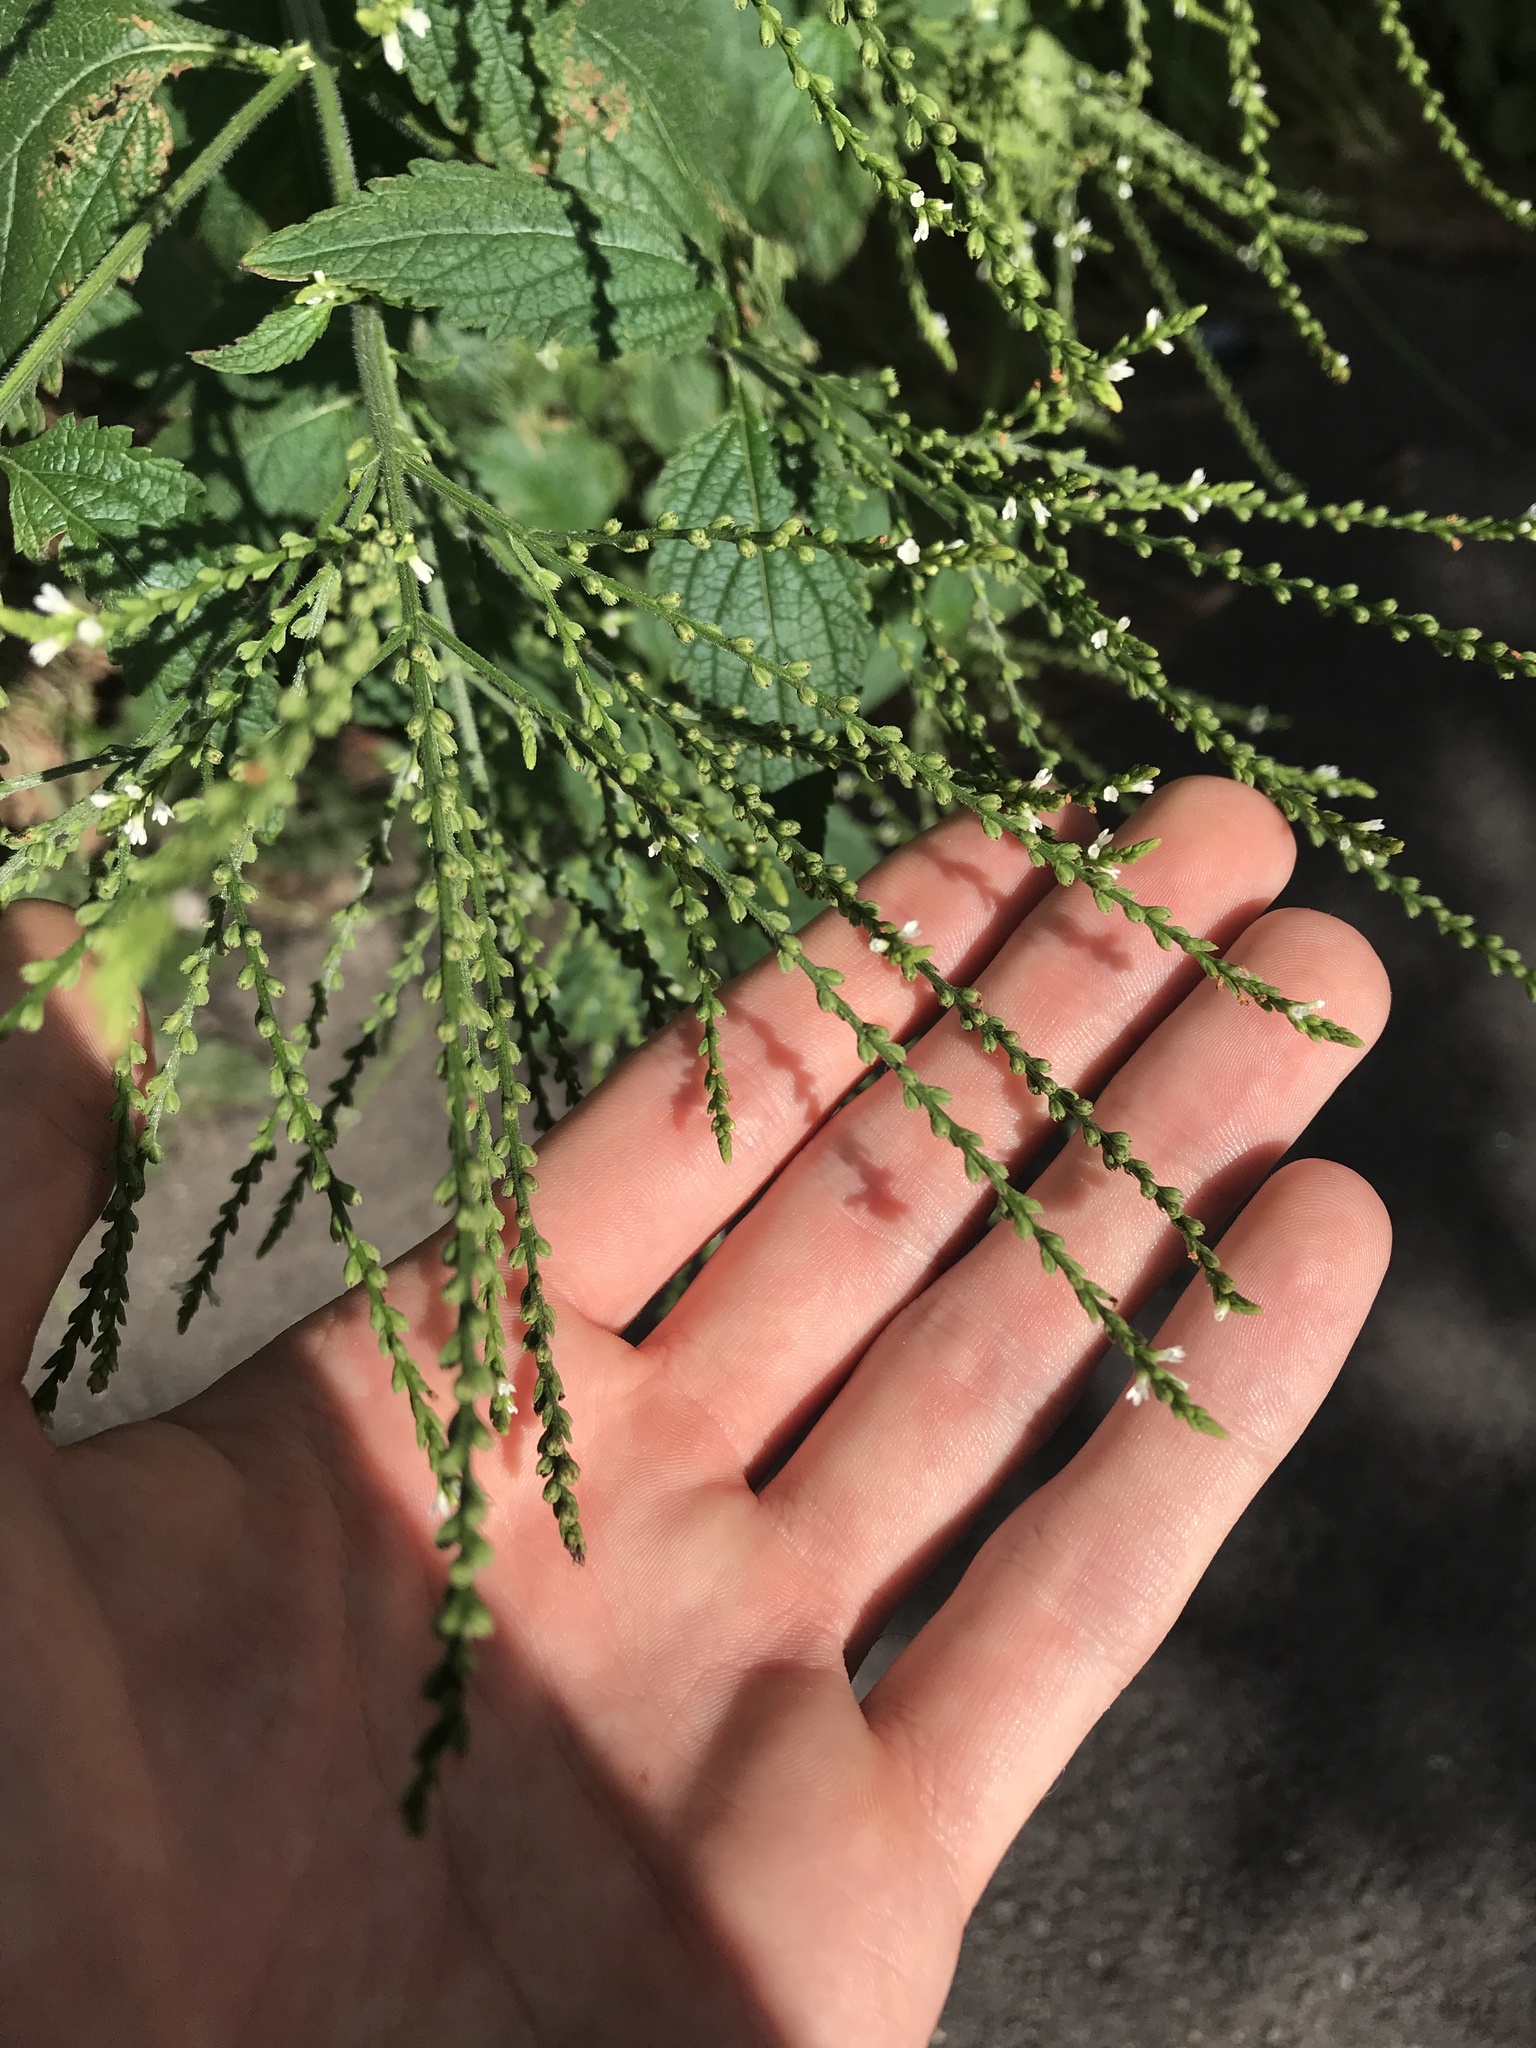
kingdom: Plantae
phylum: Tracheophyta
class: Magnoliopsida
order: Lamiales
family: Verbenaceae
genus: Verbena
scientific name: Verbena urticifolia
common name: Nettle-leaved vervain
